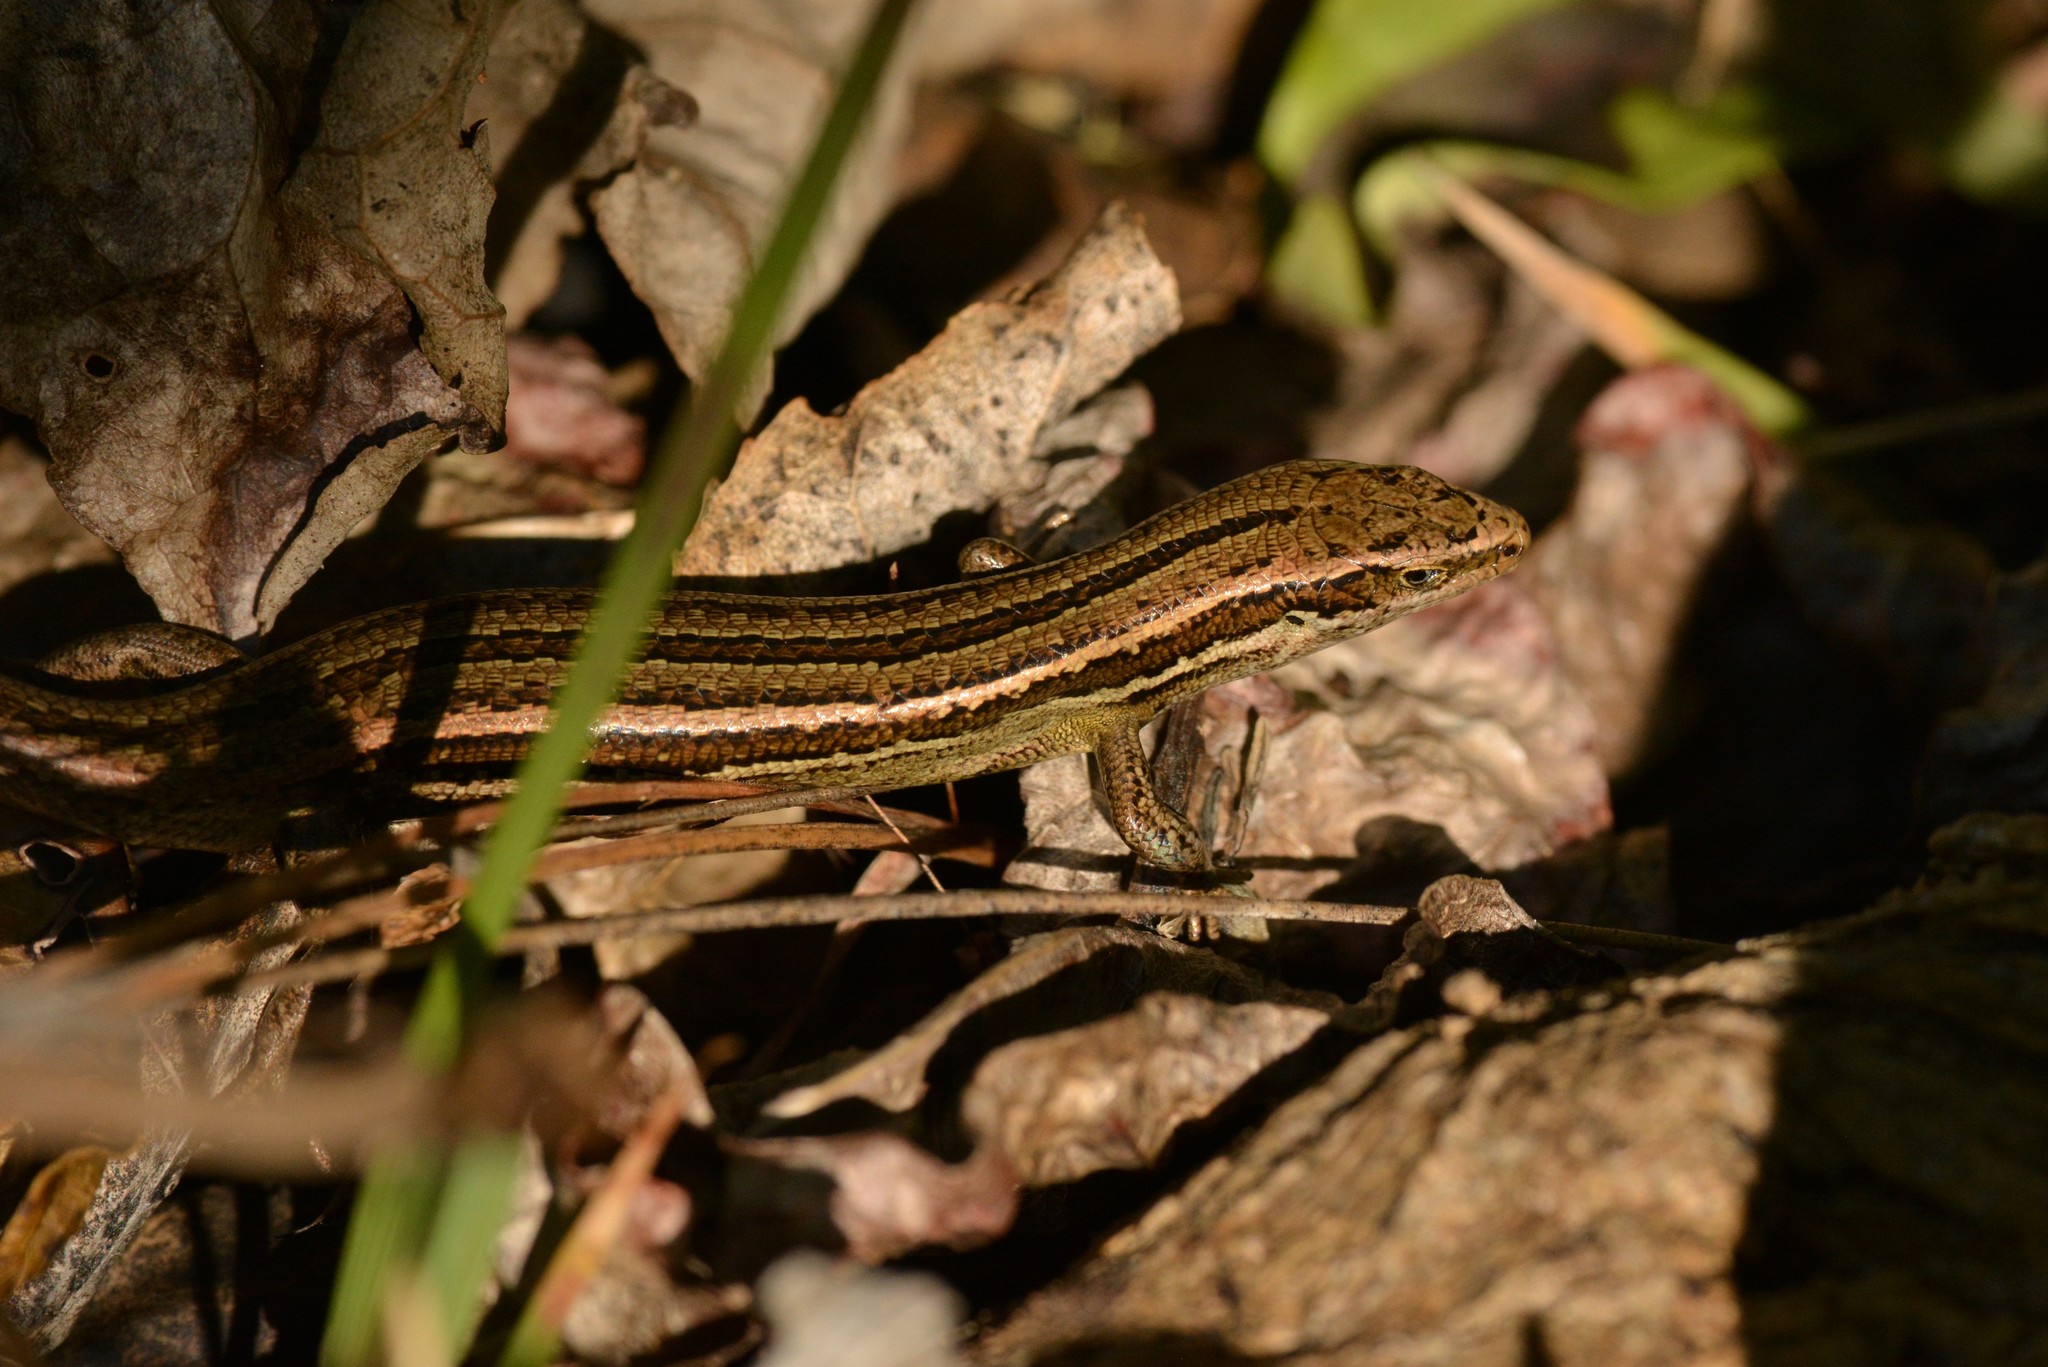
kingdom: Animalia
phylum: Chordata
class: Squamata
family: Scincidae
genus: Oligosoma
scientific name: Oligosoma polychroma
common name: Common new zealand skink
